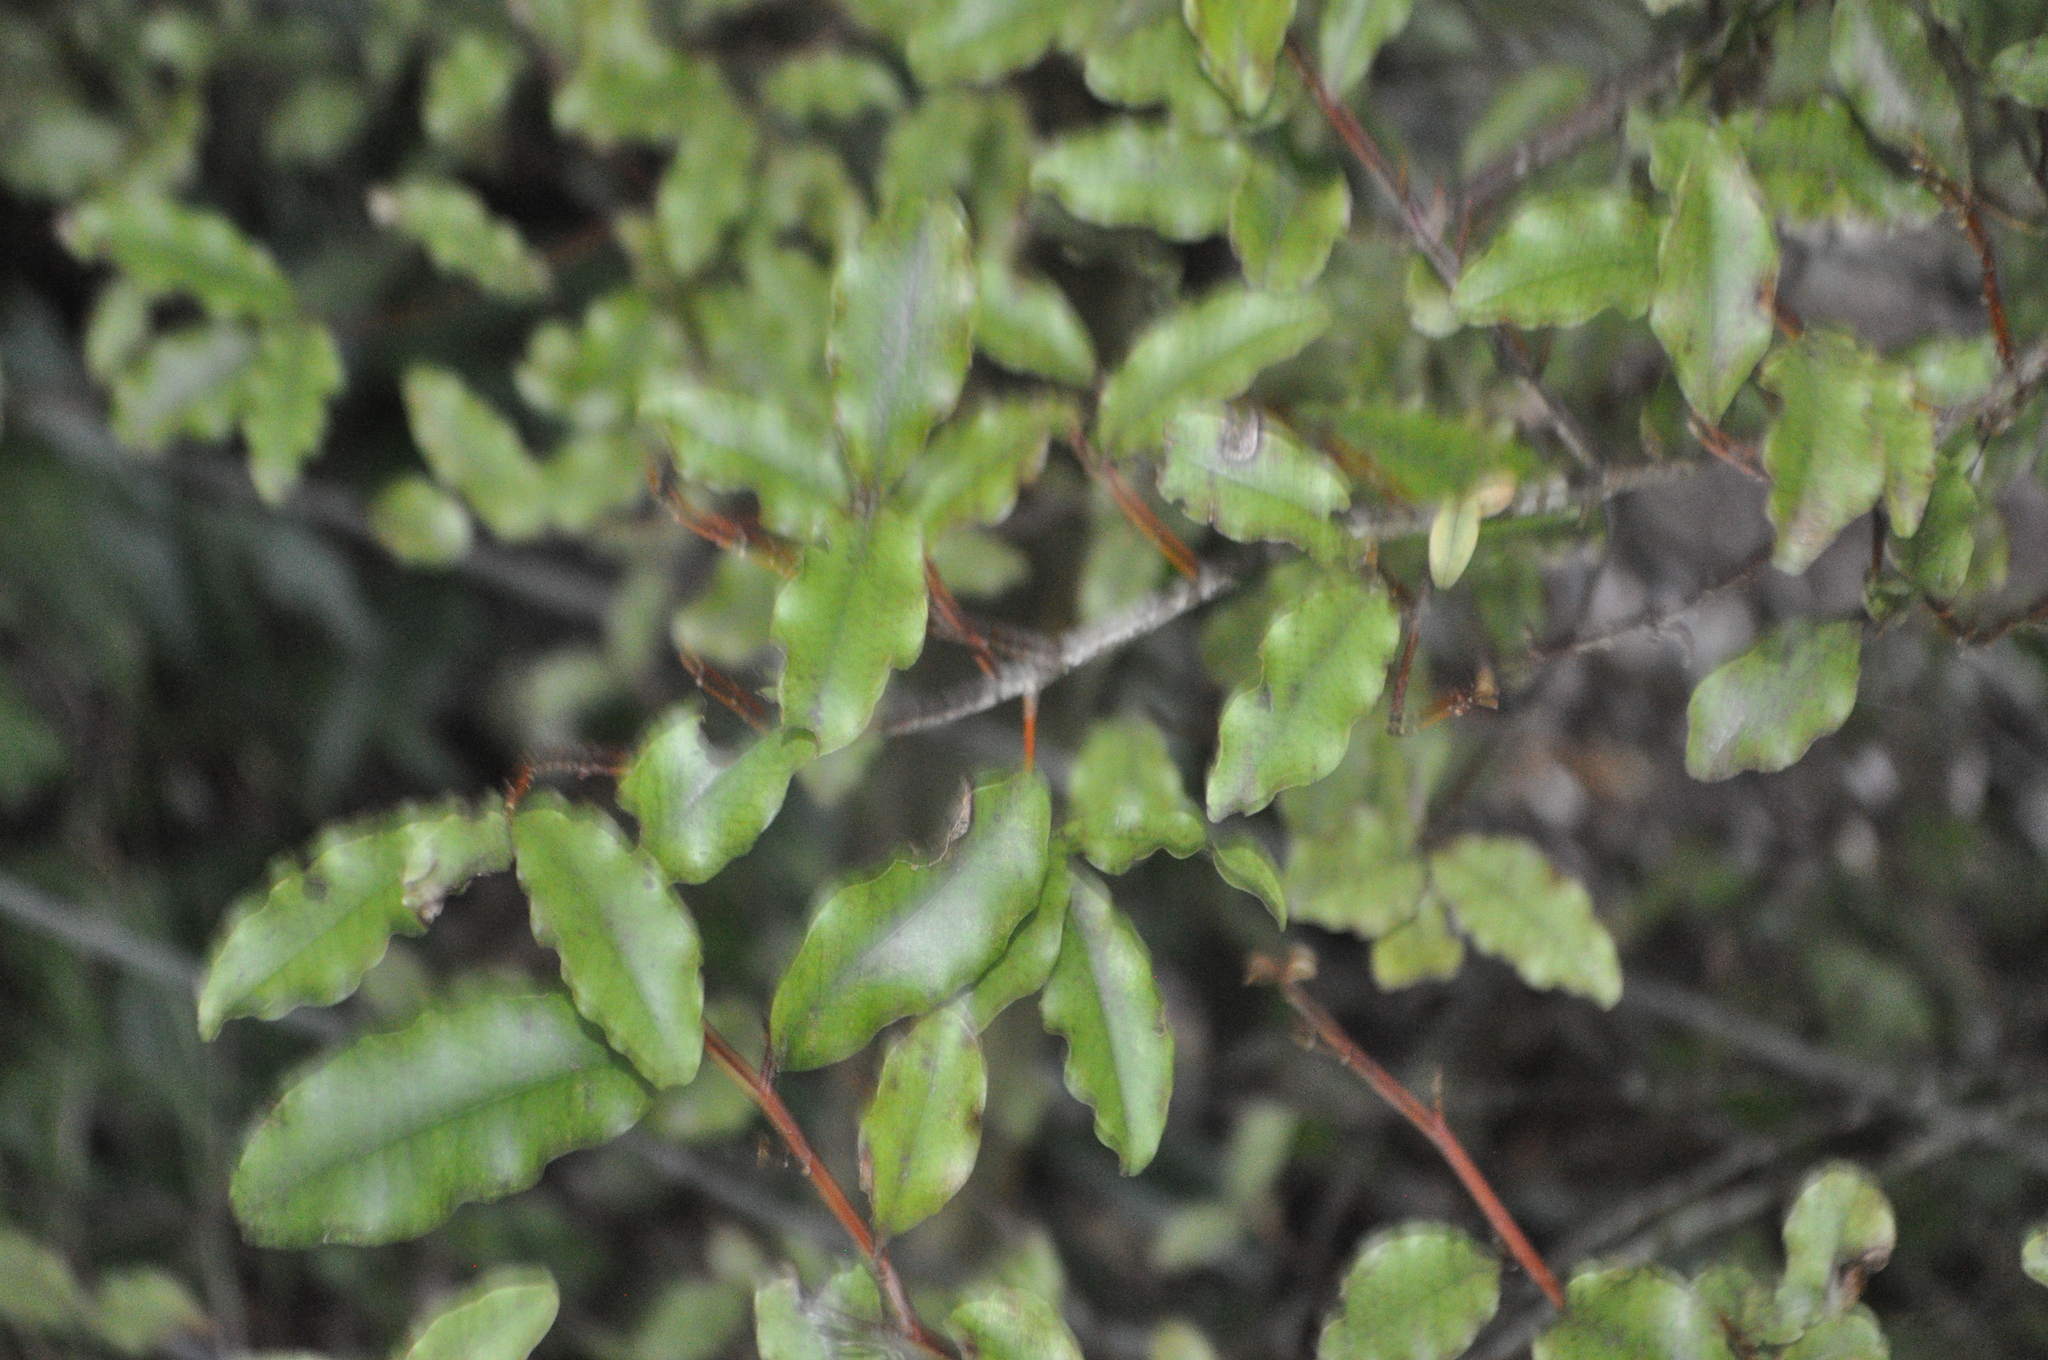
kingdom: Plantae
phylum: Tracheophyta
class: Magnoliopsida
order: Ericales
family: Primulaceae
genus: Myrsine
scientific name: Myrsine australis
